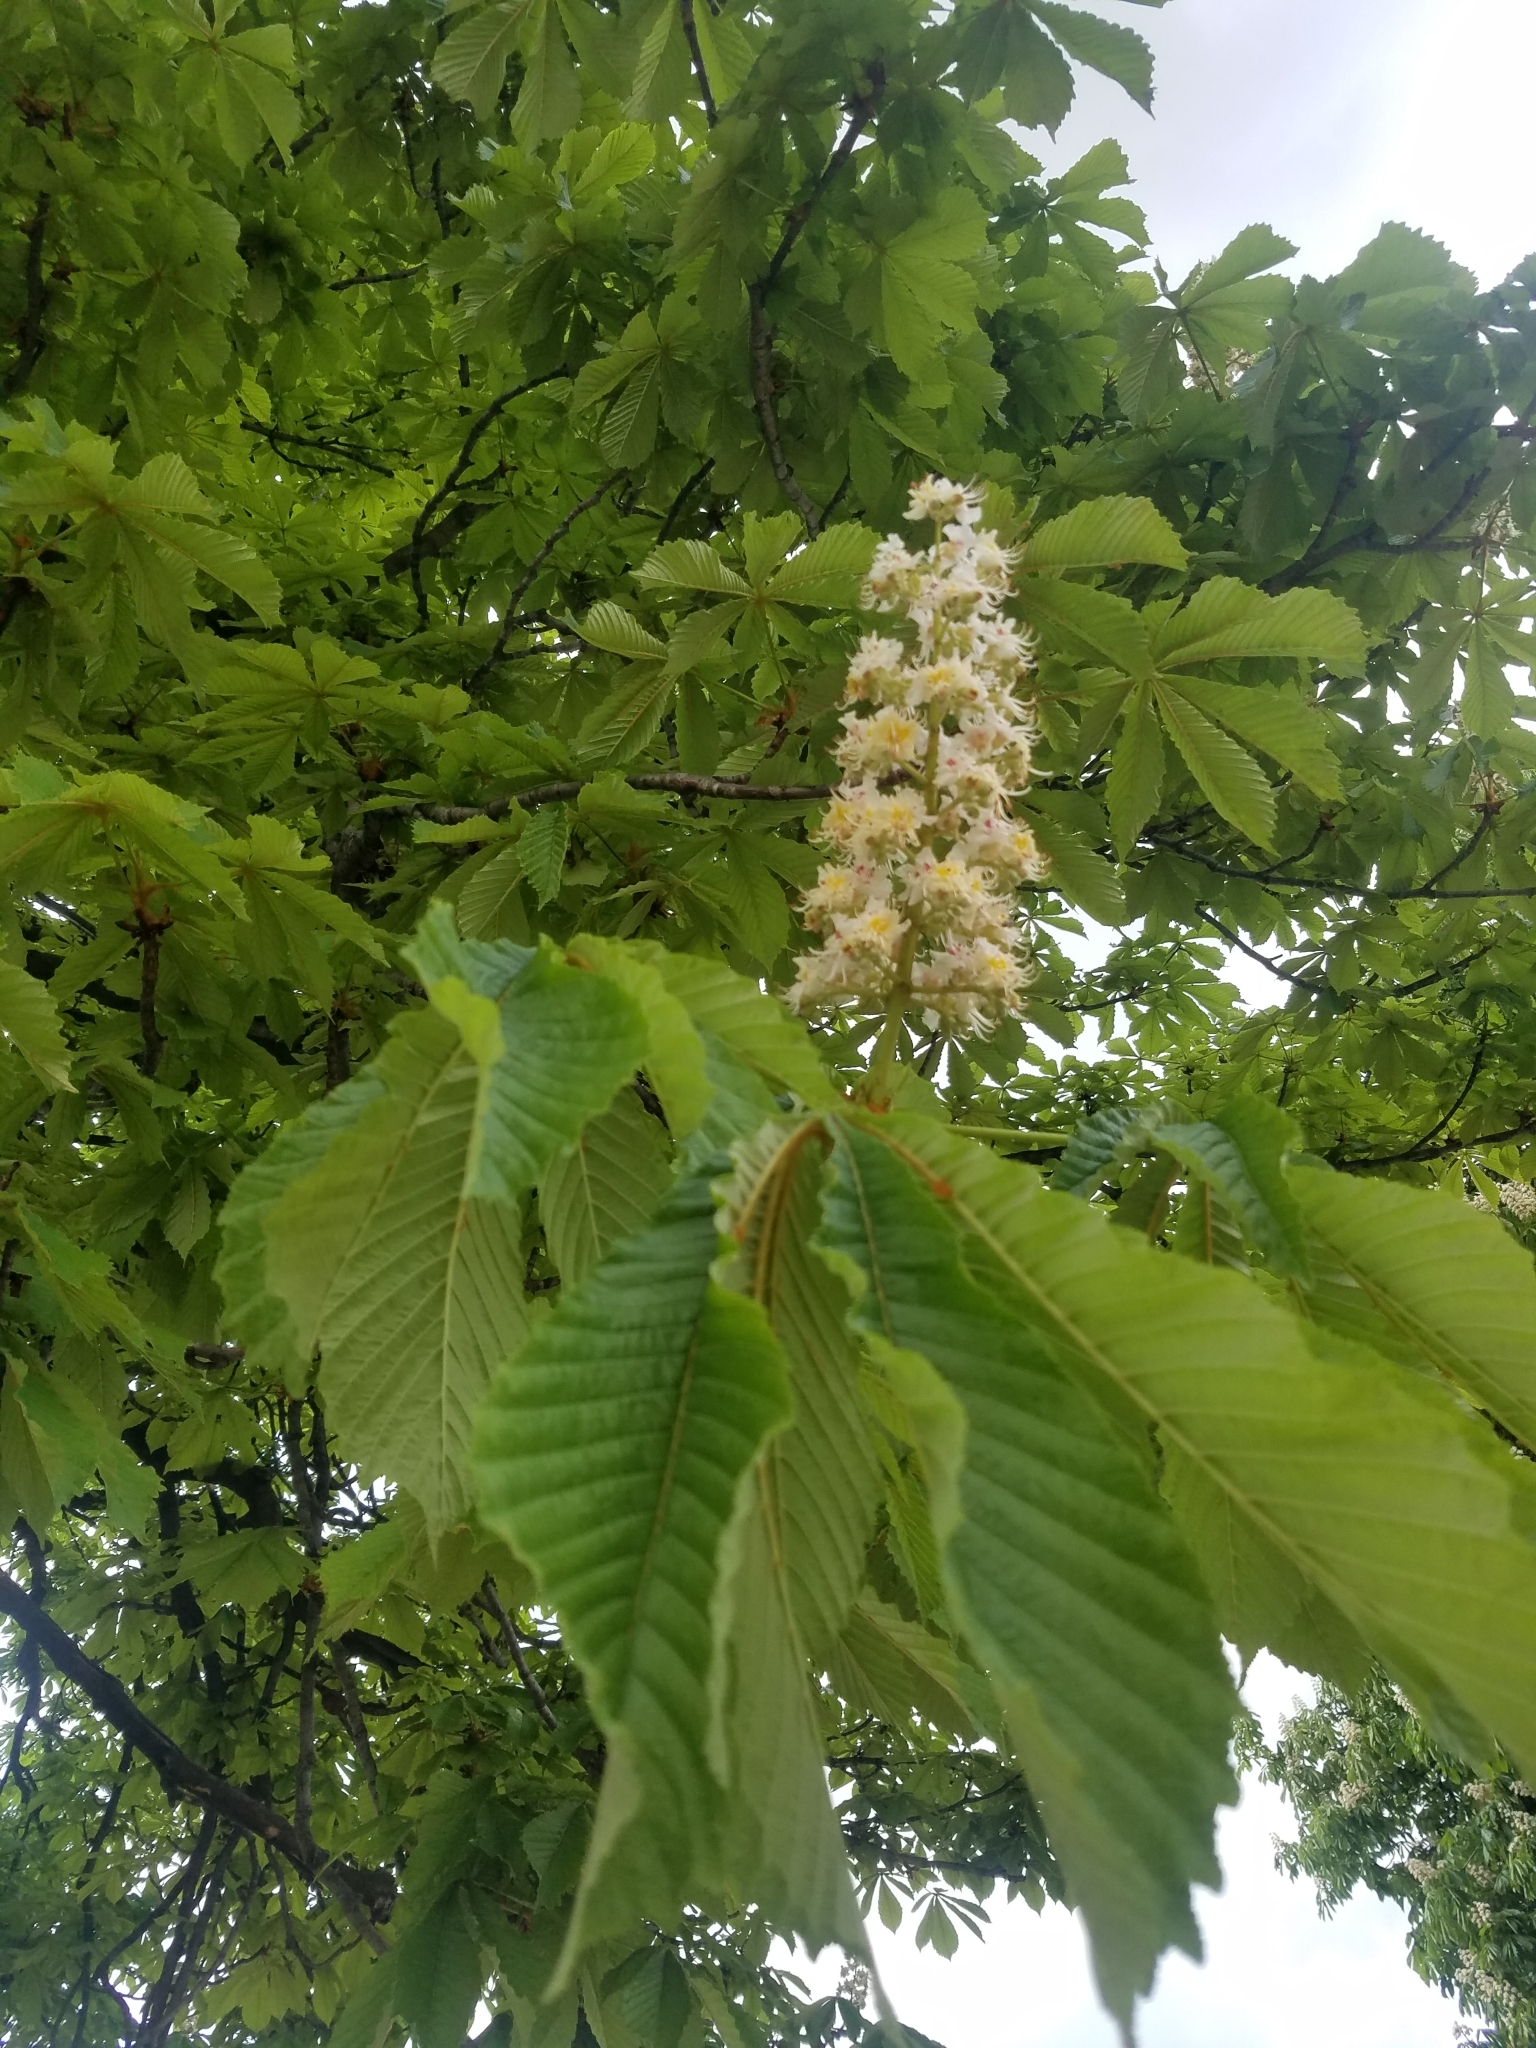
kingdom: Plantae
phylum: Tracheophyta
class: Magnoliopsida
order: Sapindales
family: Sapindaceae
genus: Aesculus
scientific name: Aesculus hippocastanum
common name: Horse-chestnut
